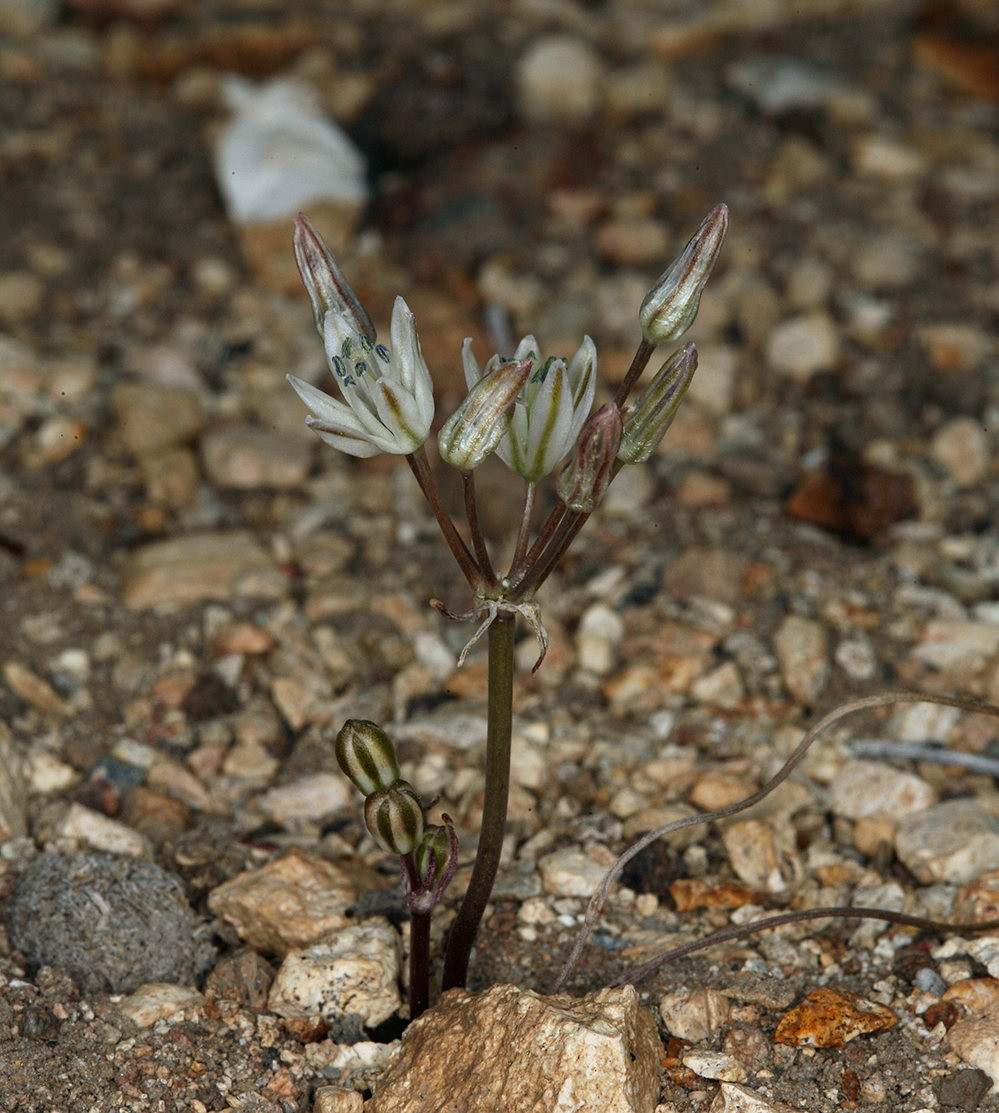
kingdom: Plantae
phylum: Tracheophyta
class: Liliopsida
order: Asparagales
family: Asparagaceae
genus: Muilla
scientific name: Muilla transmontana
